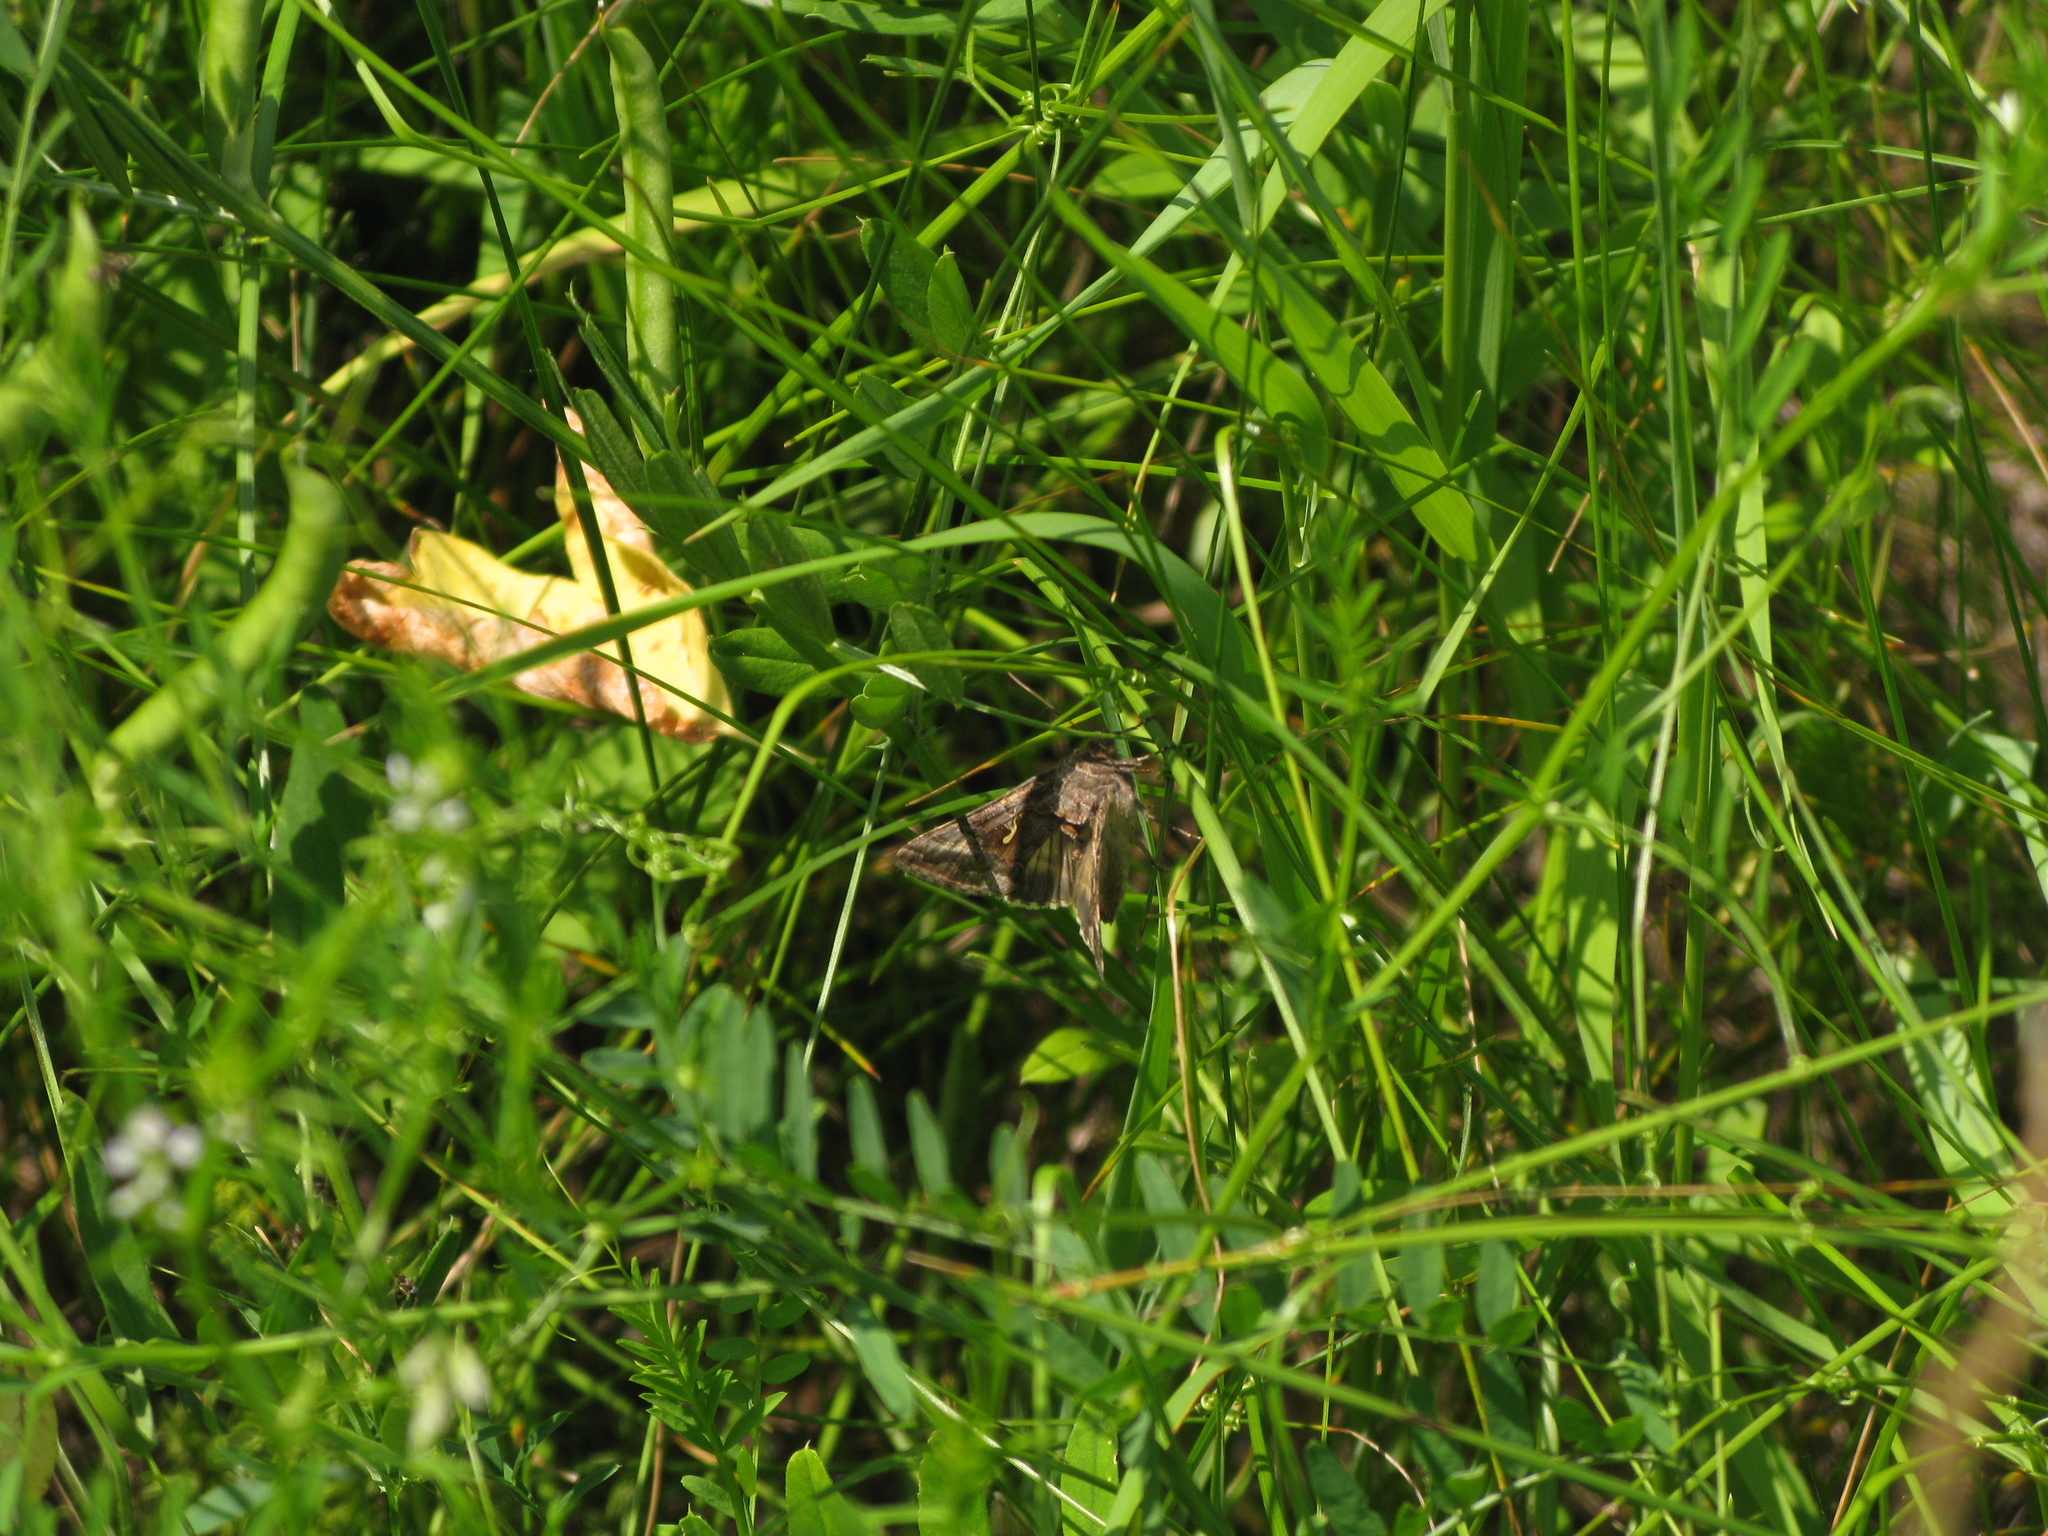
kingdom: Animalia
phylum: Arthropoda
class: Insecta
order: Lepidoptera
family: Noctuidae
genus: Autographa
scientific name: Autographa gamma
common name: Silver y
